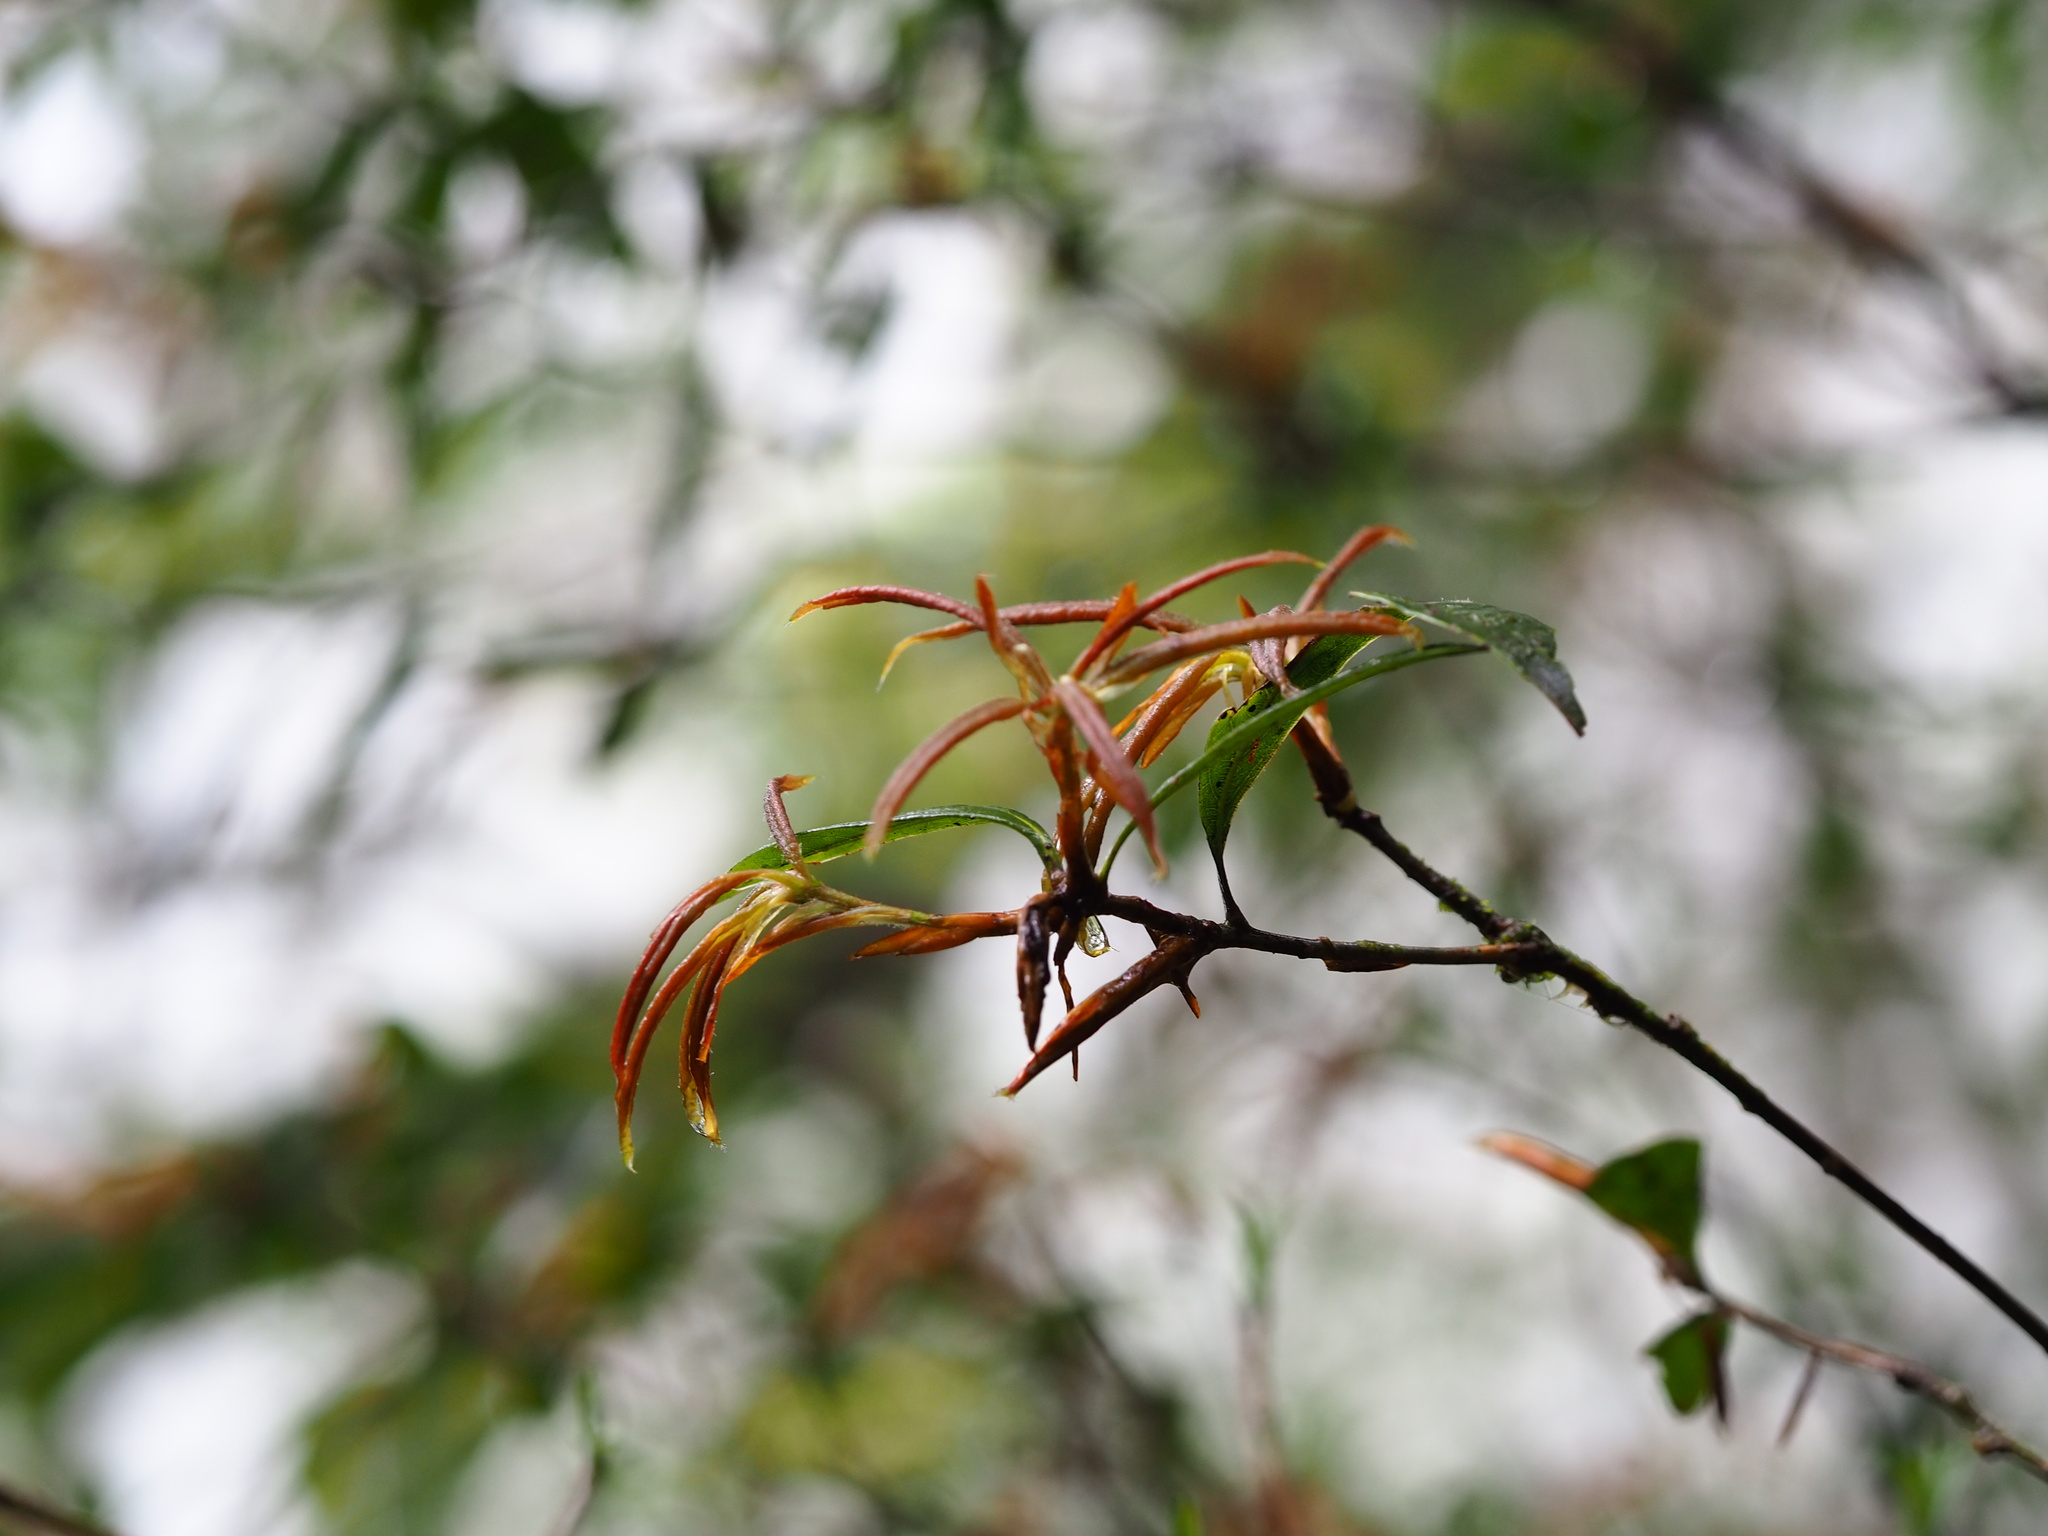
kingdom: Plantae
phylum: Tracheophyta
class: Magnoliopsida
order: Fagales
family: Fagaceae
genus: Quercus
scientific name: Quercus sessilifolia
